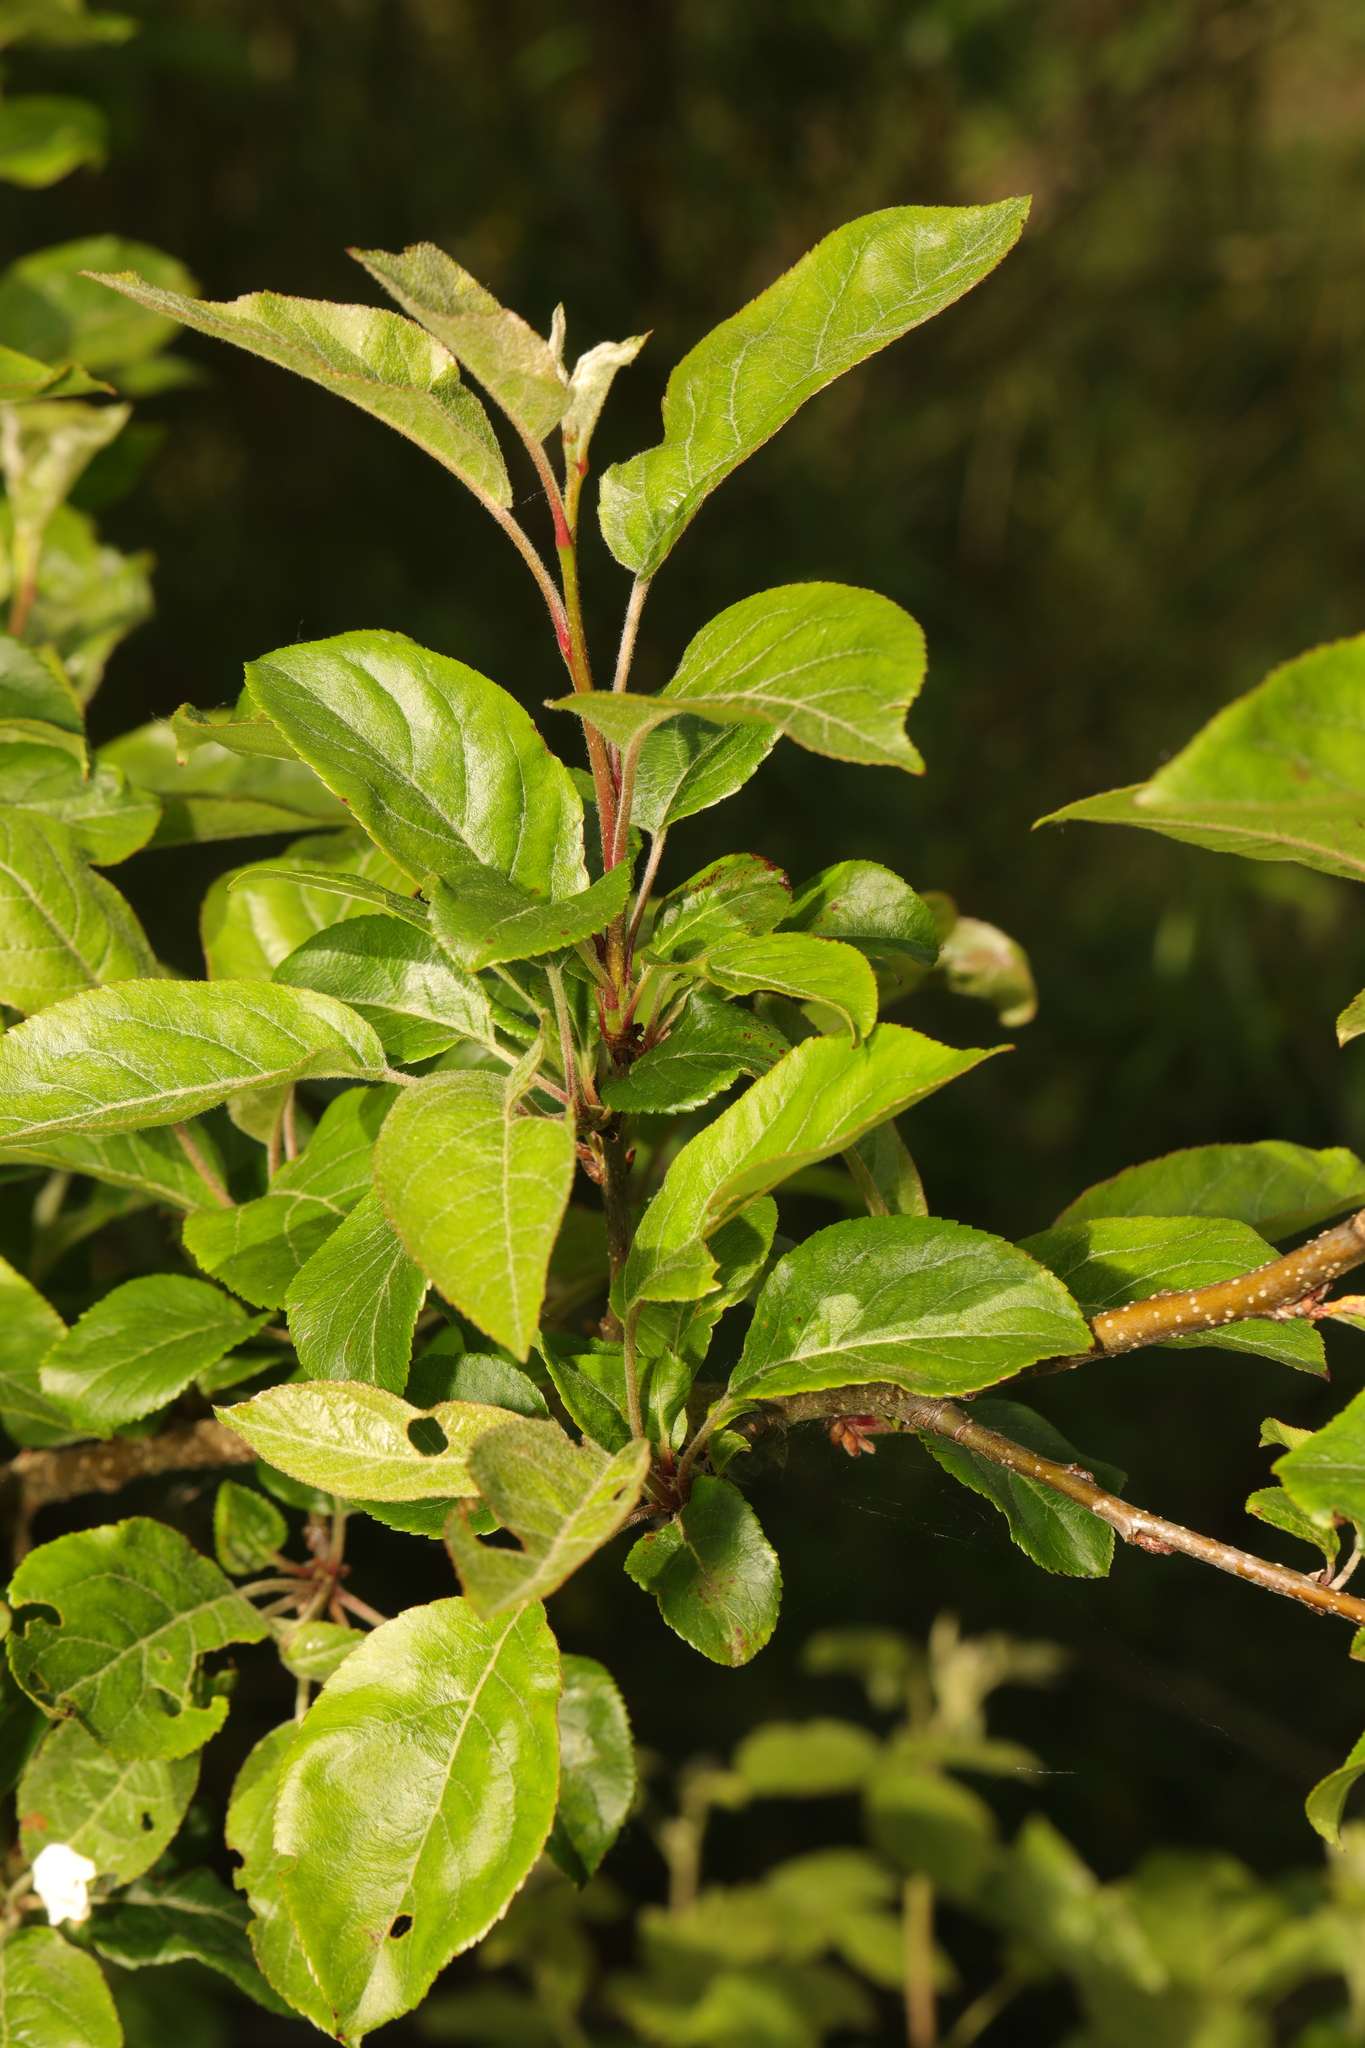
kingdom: Plantae
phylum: Tracheophyta
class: Magnoliopsida
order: Rosales
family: Rosaceae
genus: Malus
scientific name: Malus domestica
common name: Apple
